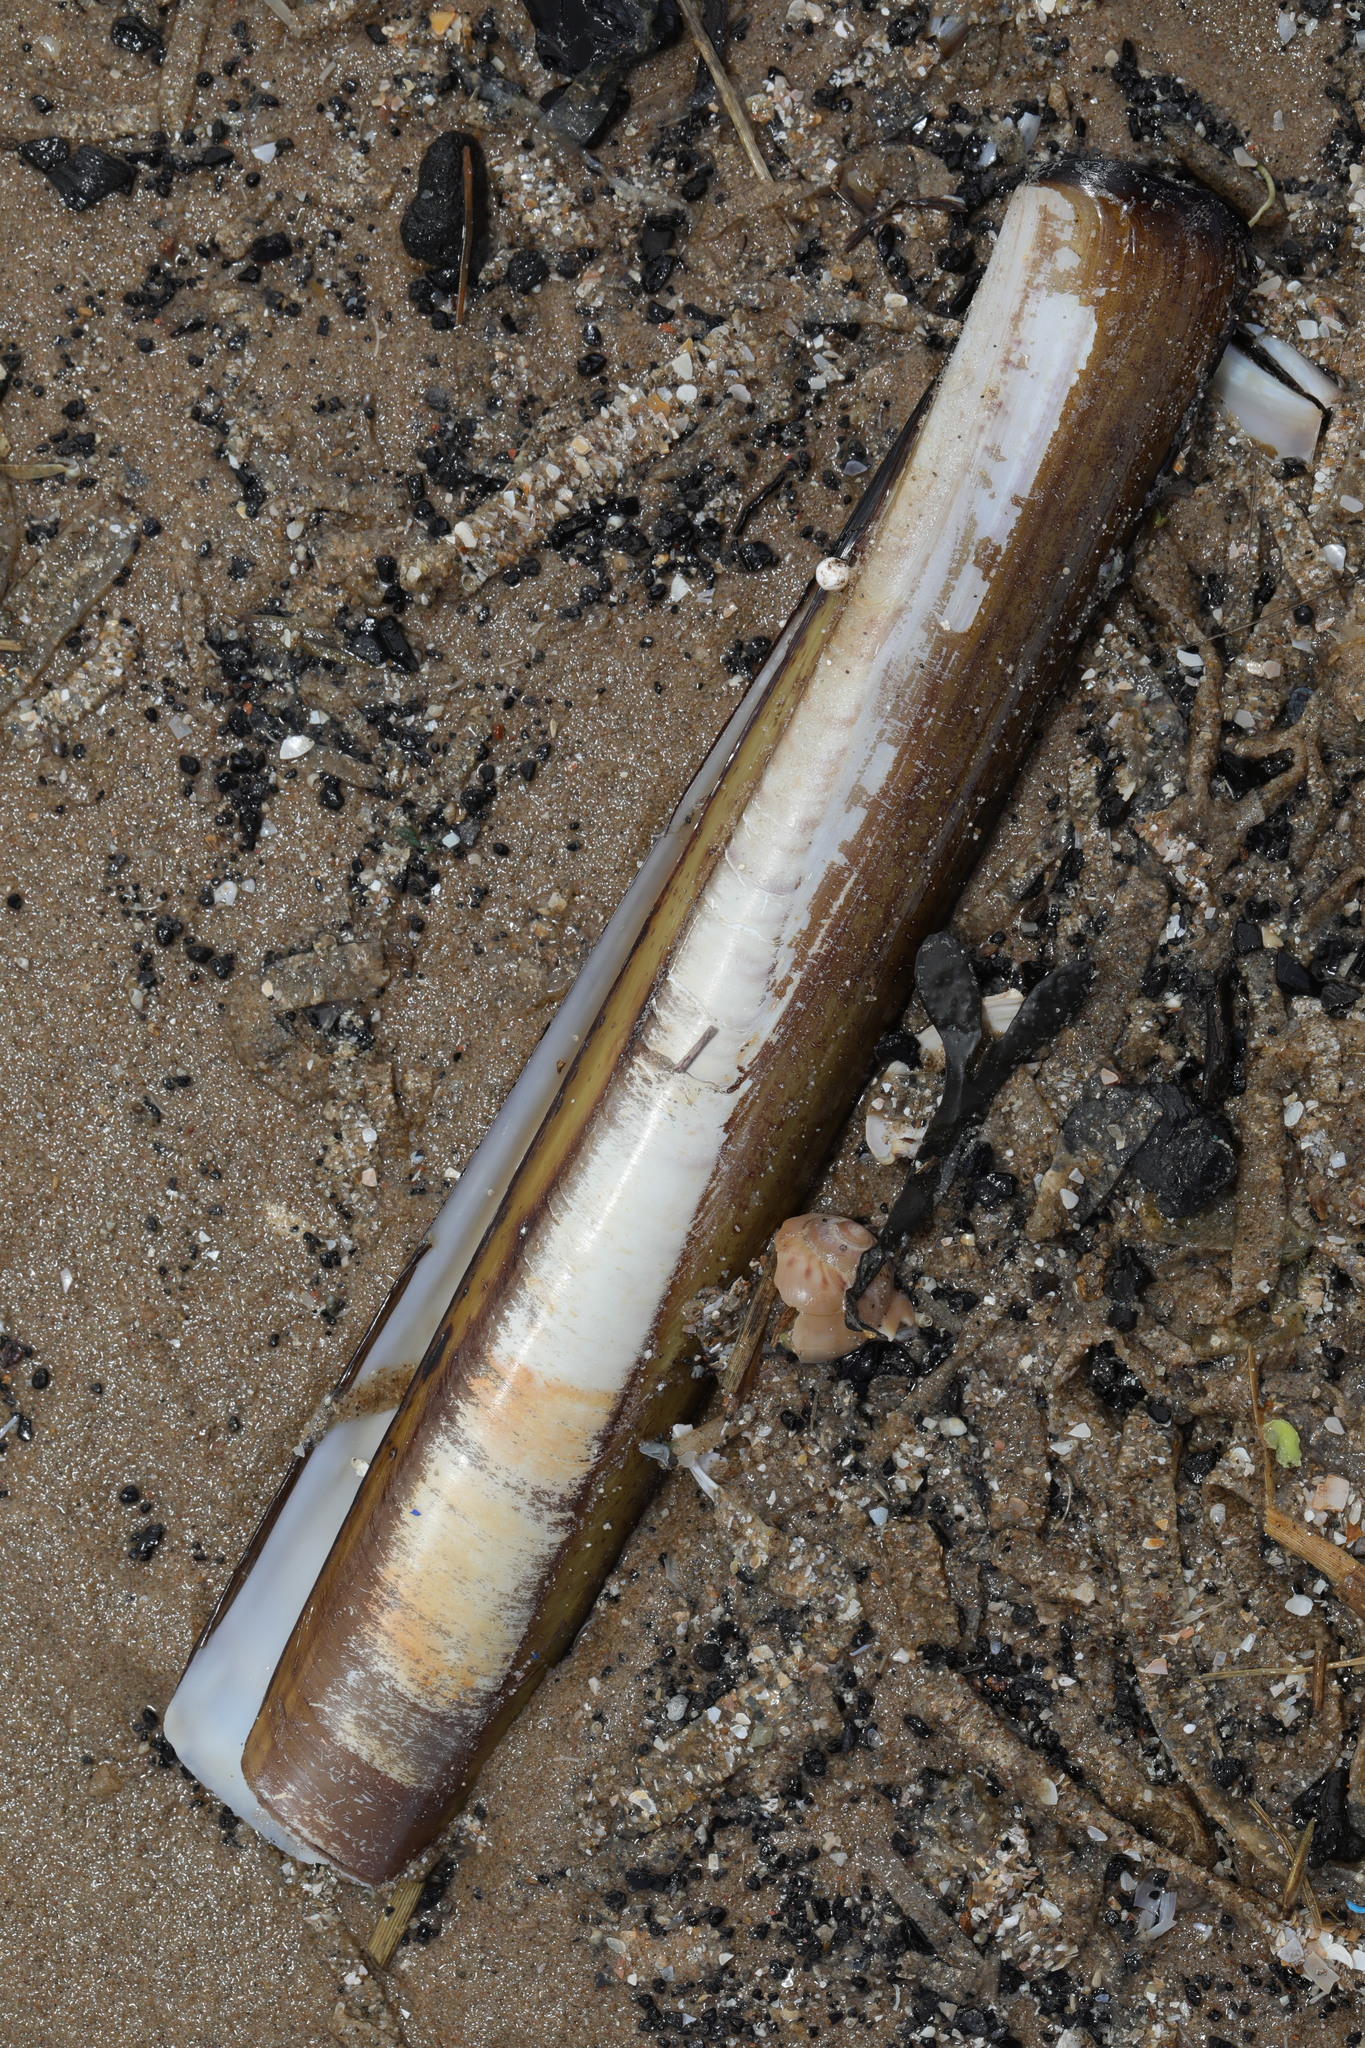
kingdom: Animalia
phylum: Mollusca
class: Bivalvia
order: Adapedonta
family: Pharidae
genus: Ensis
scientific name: Ensis siliqua
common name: Pod razor shell
